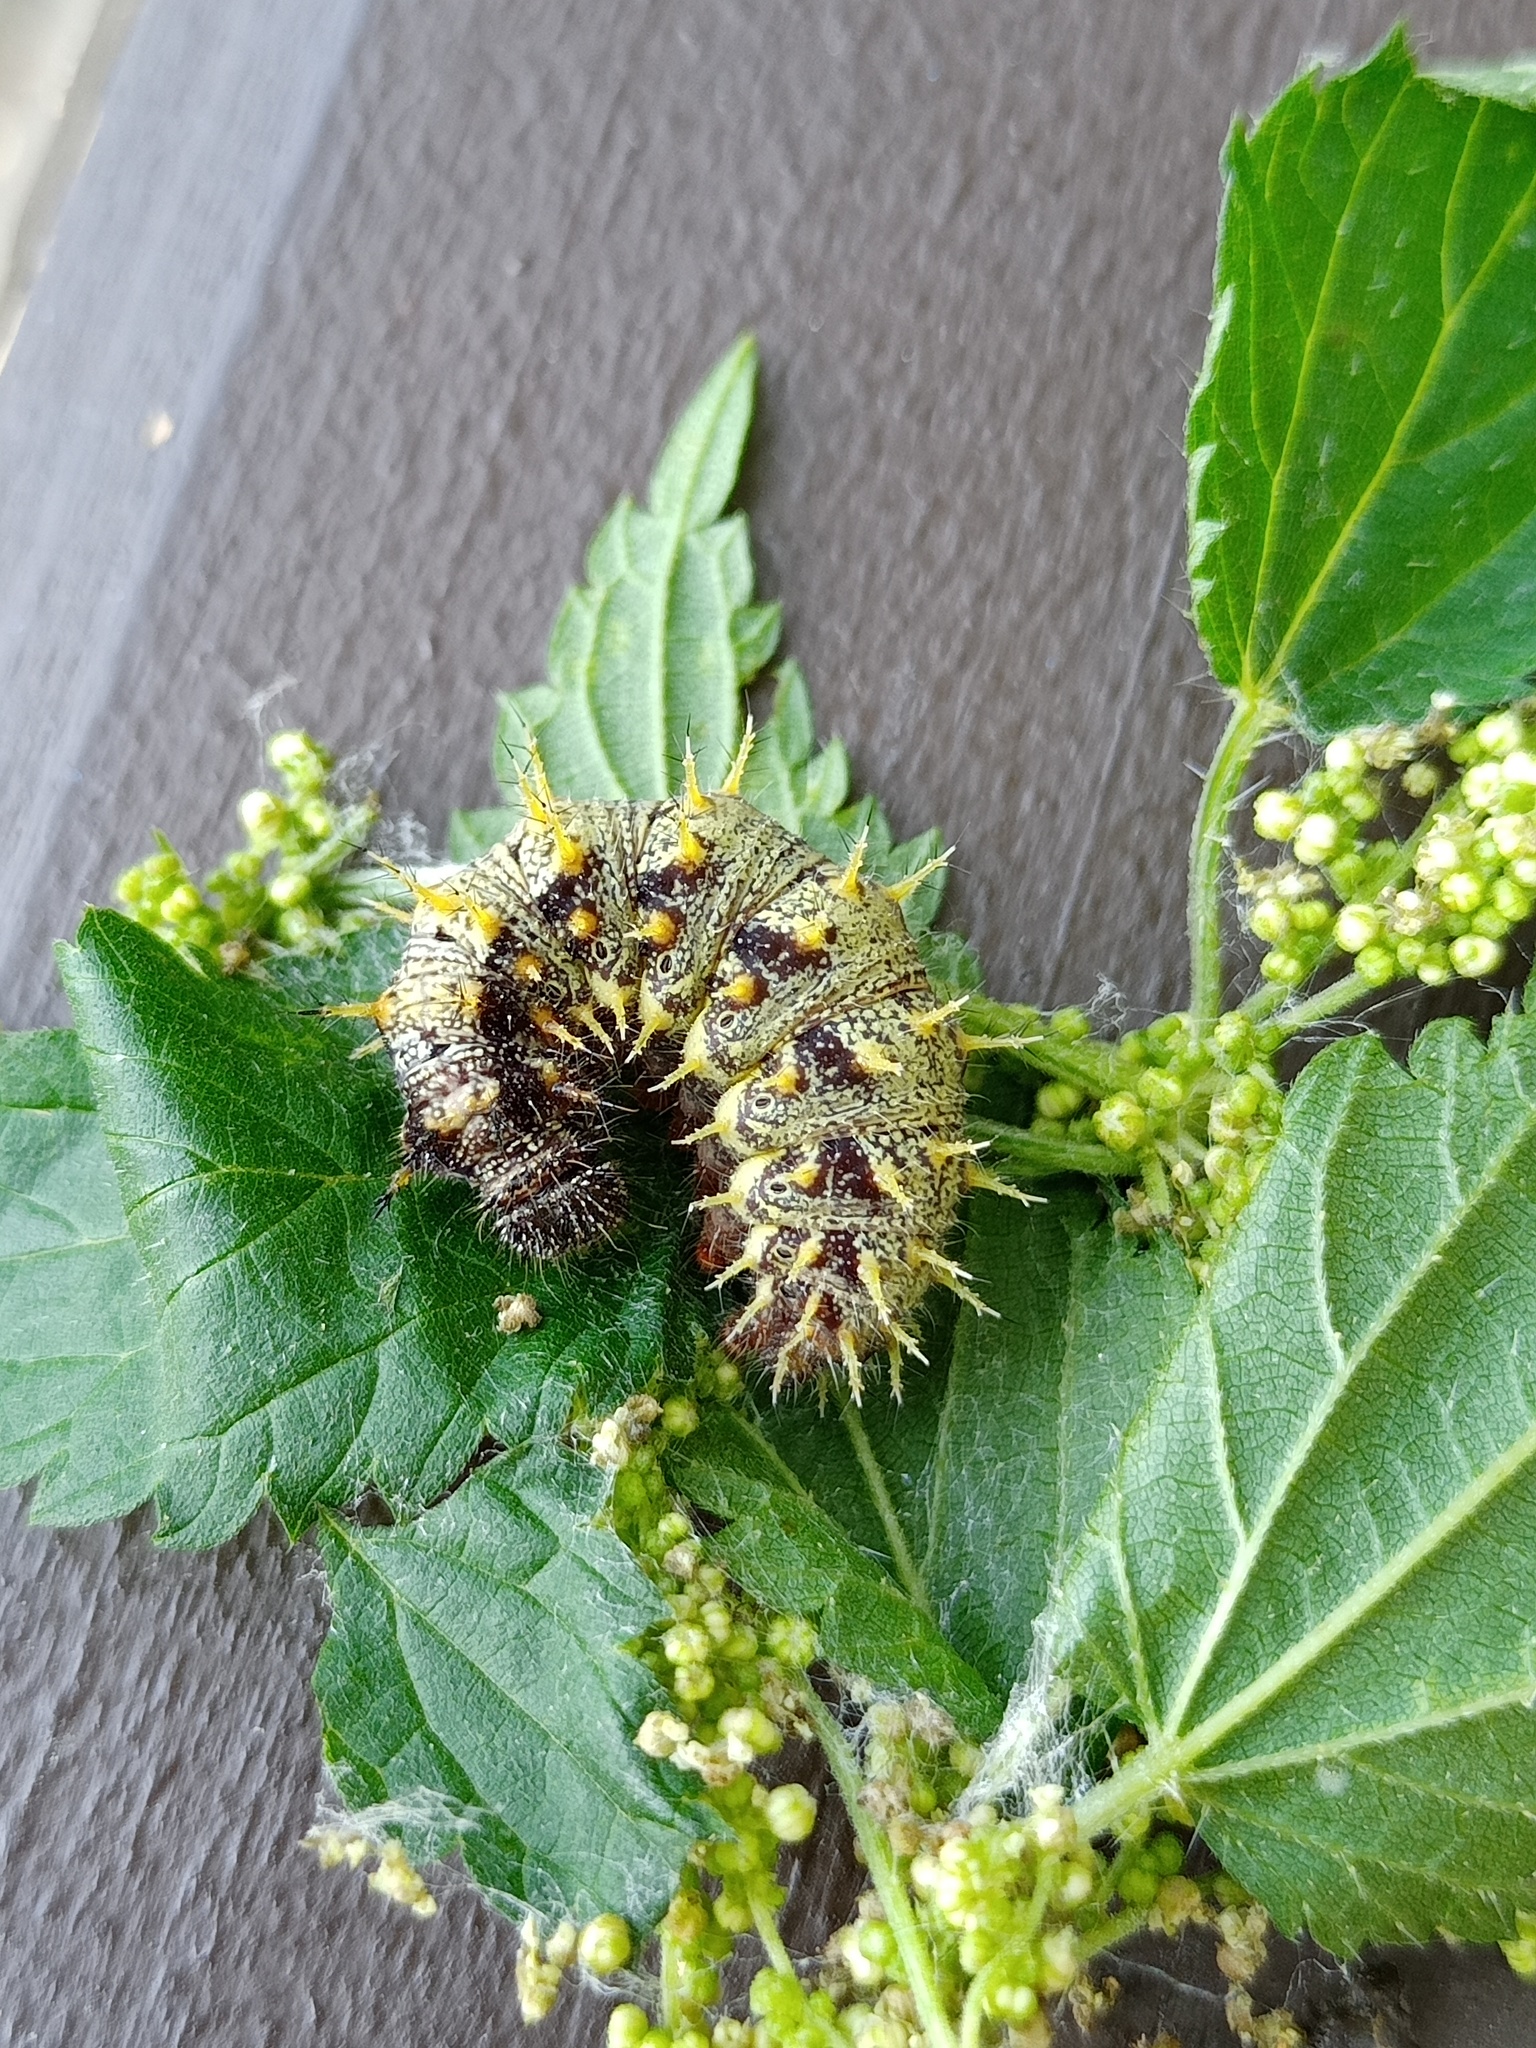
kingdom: Animalia
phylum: Arthropoda
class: Insecta
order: Lepidoptera
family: Nymphalidae
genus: Vanessa
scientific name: Vanessa atalanta
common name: Red admiral
